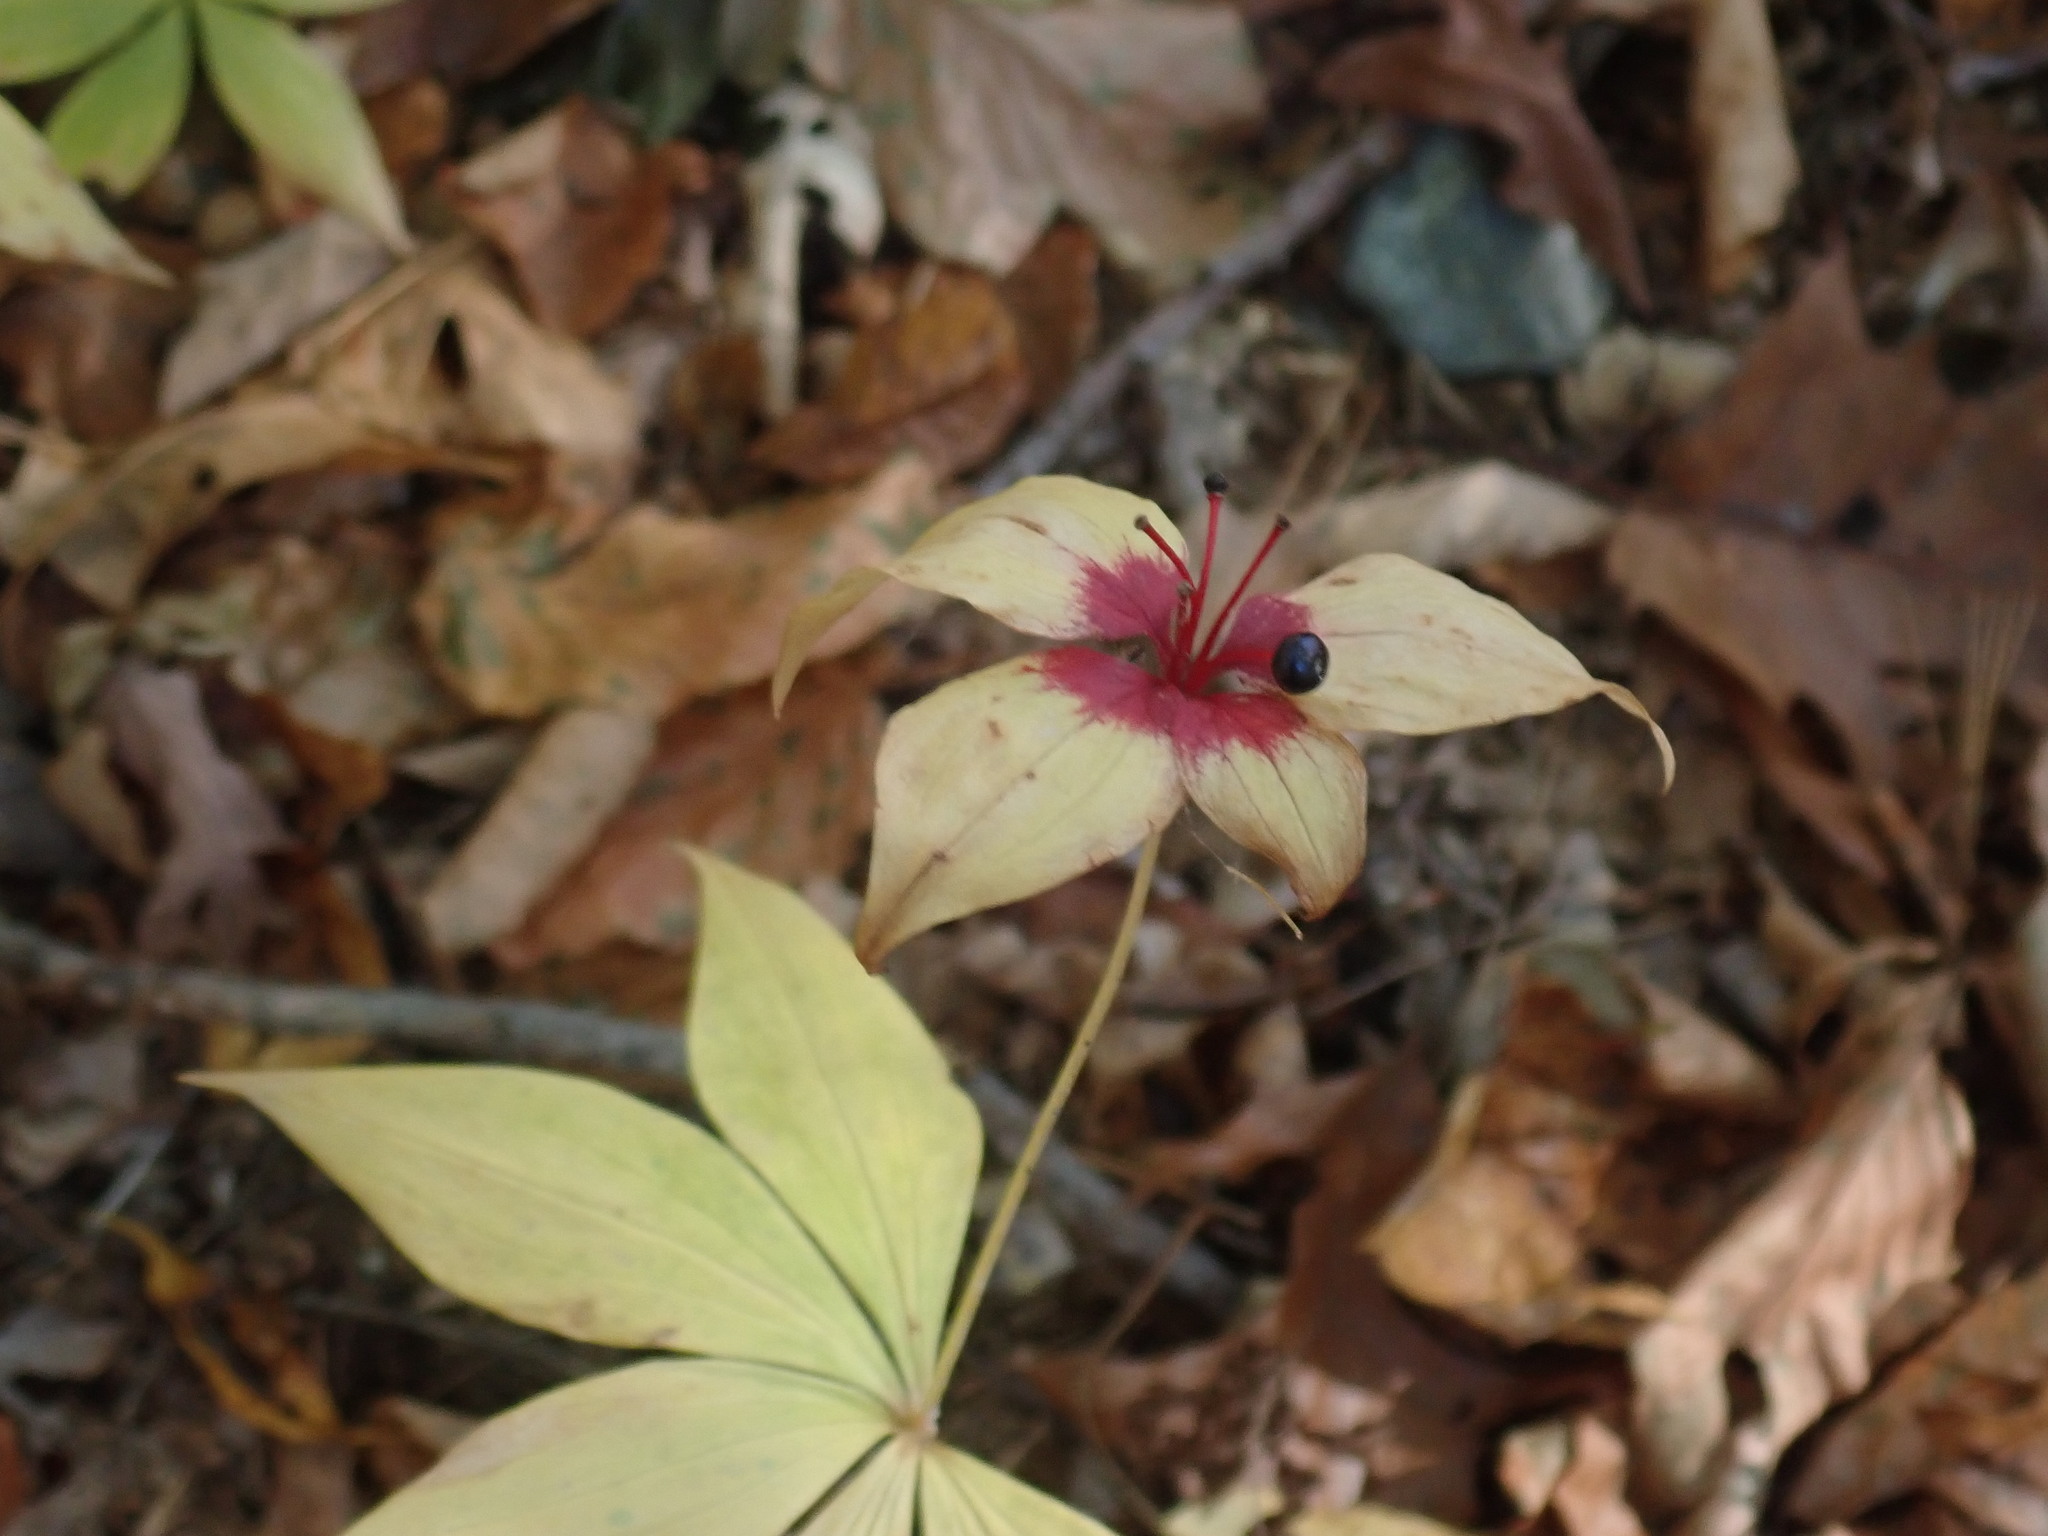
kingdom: Plantae
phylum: Tracheophyta
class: Liliopsida
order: Liliales
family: Liliaceae
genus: Medeola
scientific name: Medeola virginiana
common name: Indian cucumber-root
